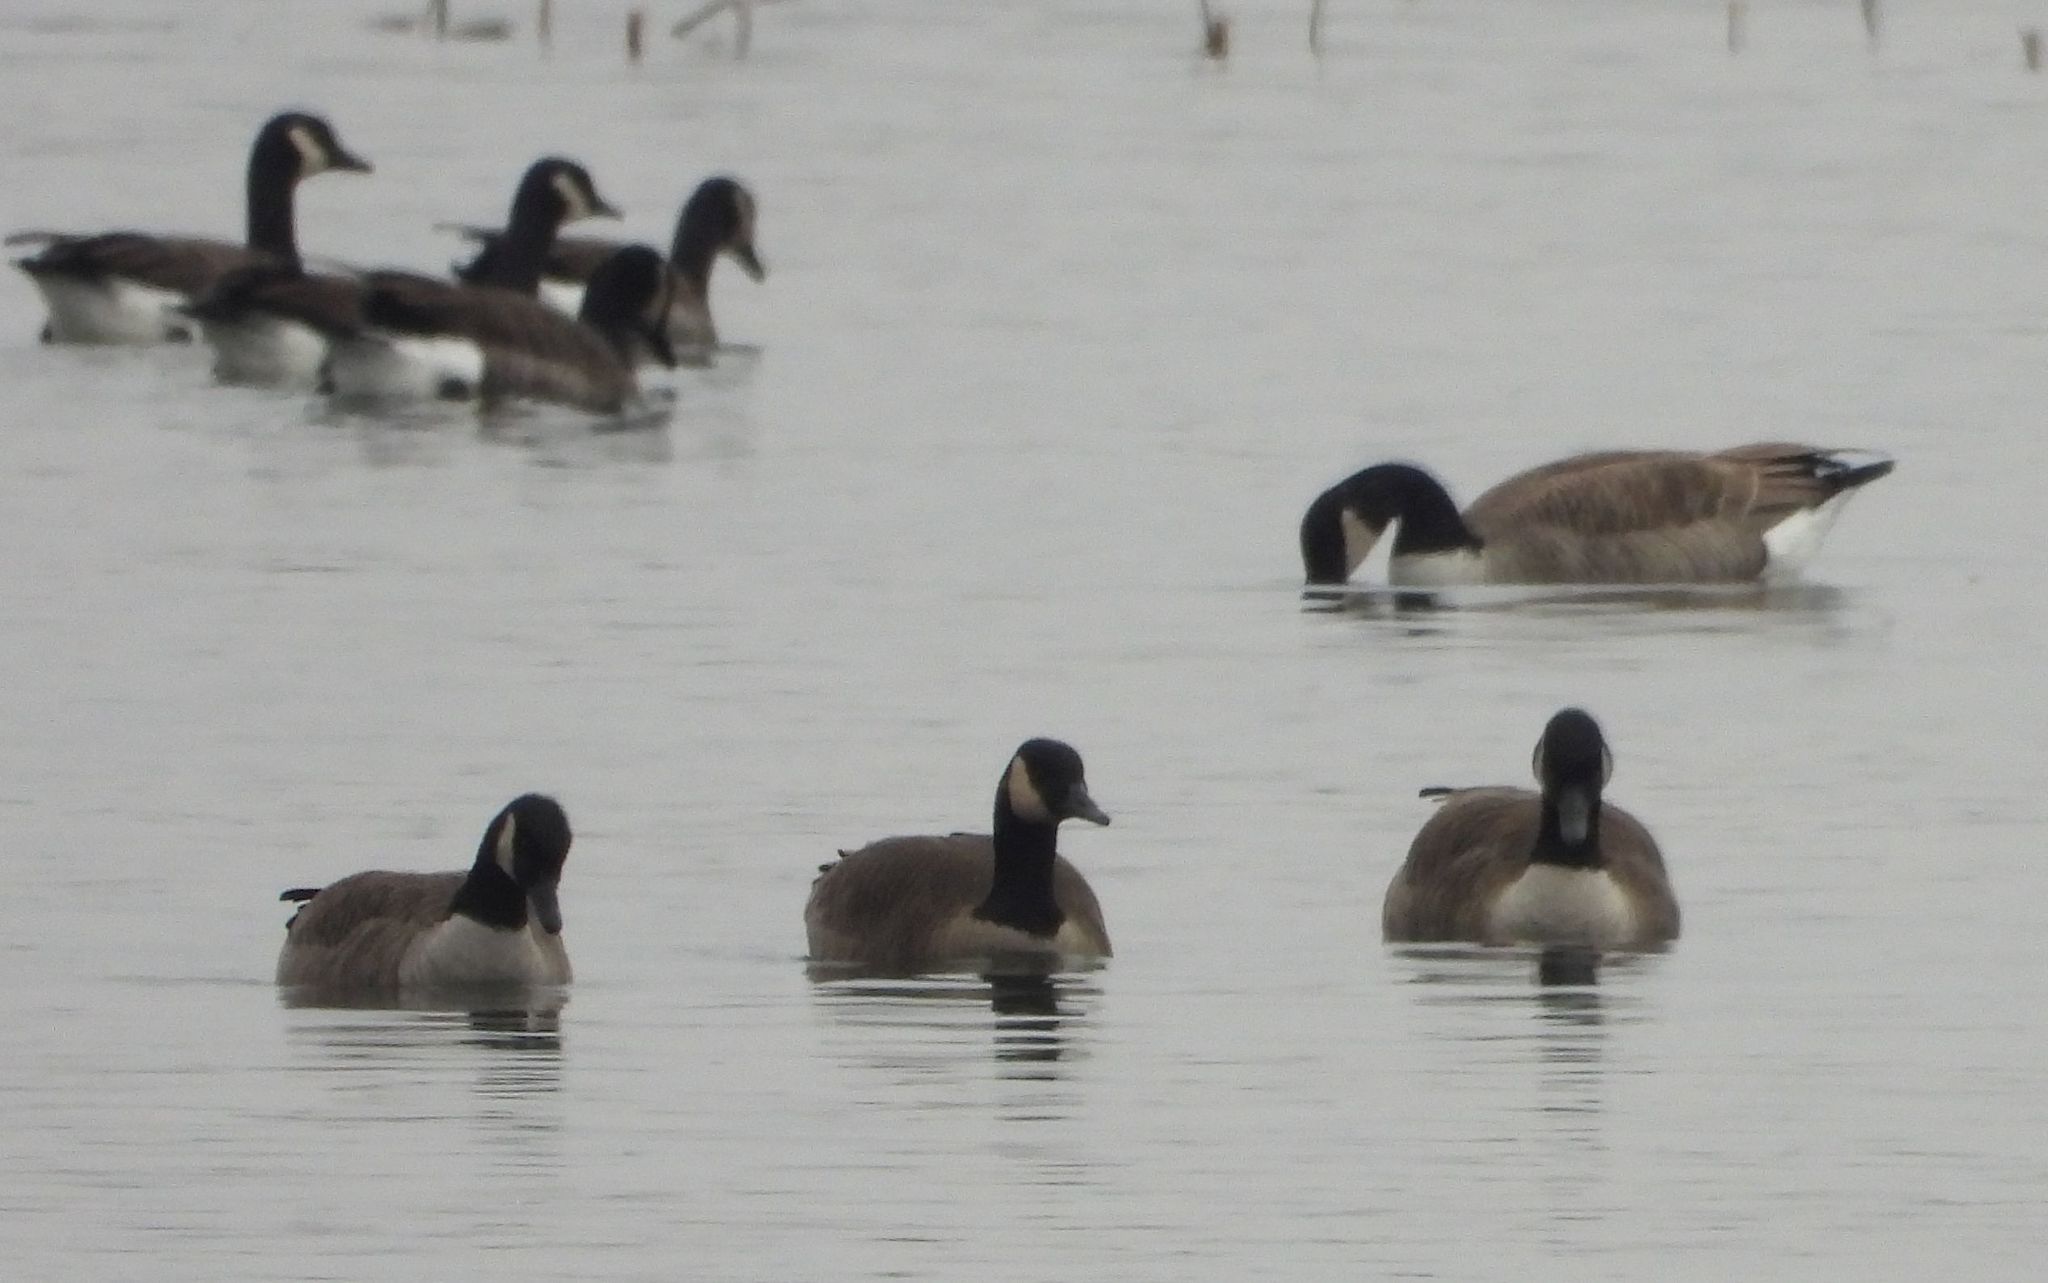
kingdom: Animalia
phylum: Chordata
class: Aves
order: Anseriformes
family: Anatidae
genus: Branta
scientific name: Branta canadensis
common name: Canada goose
